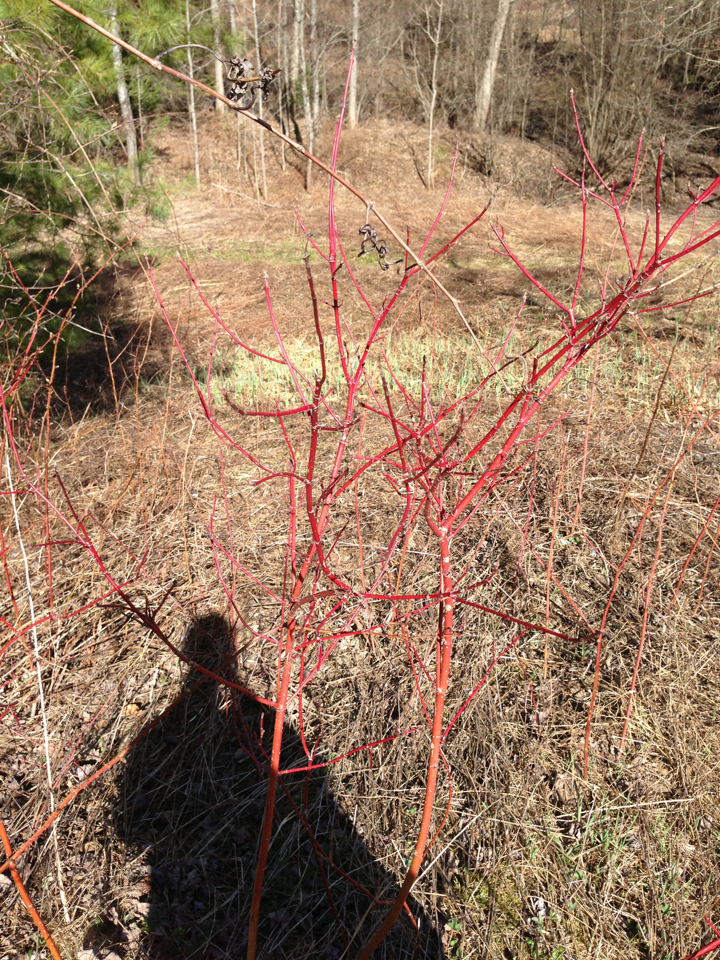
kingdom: Plantae
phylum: Tracheophyta
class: Magnoliopsida
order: Cornales
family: Cornaceae
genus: Cornus
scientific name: Cornus sericea
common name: Red-osier dogwood
